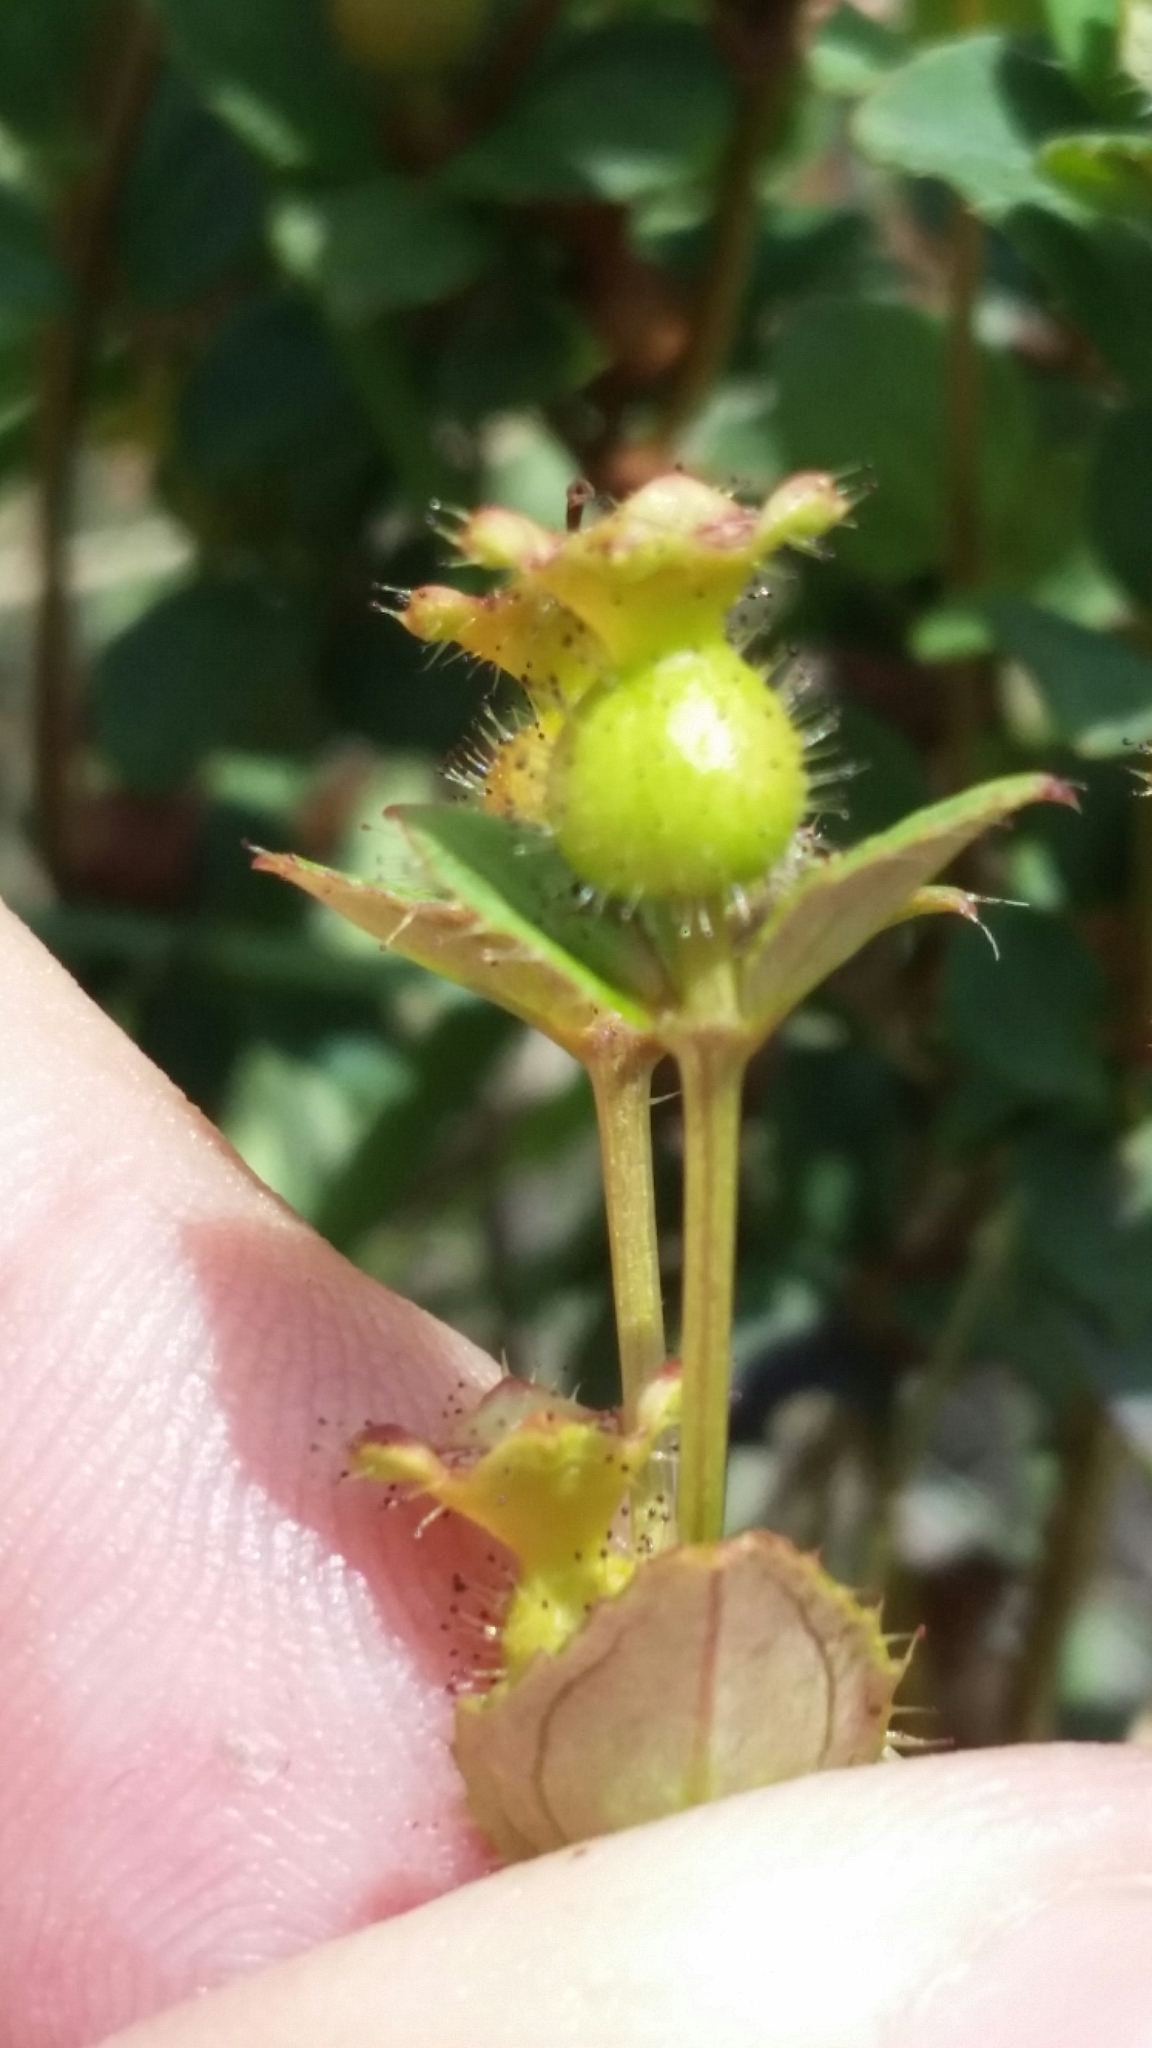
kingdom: Plantae
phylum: Tracheophyta
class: Magnoliopsida
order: Myrtales
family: Melastomataceae
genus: Rhexia
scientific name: Rhexia nuttallii
